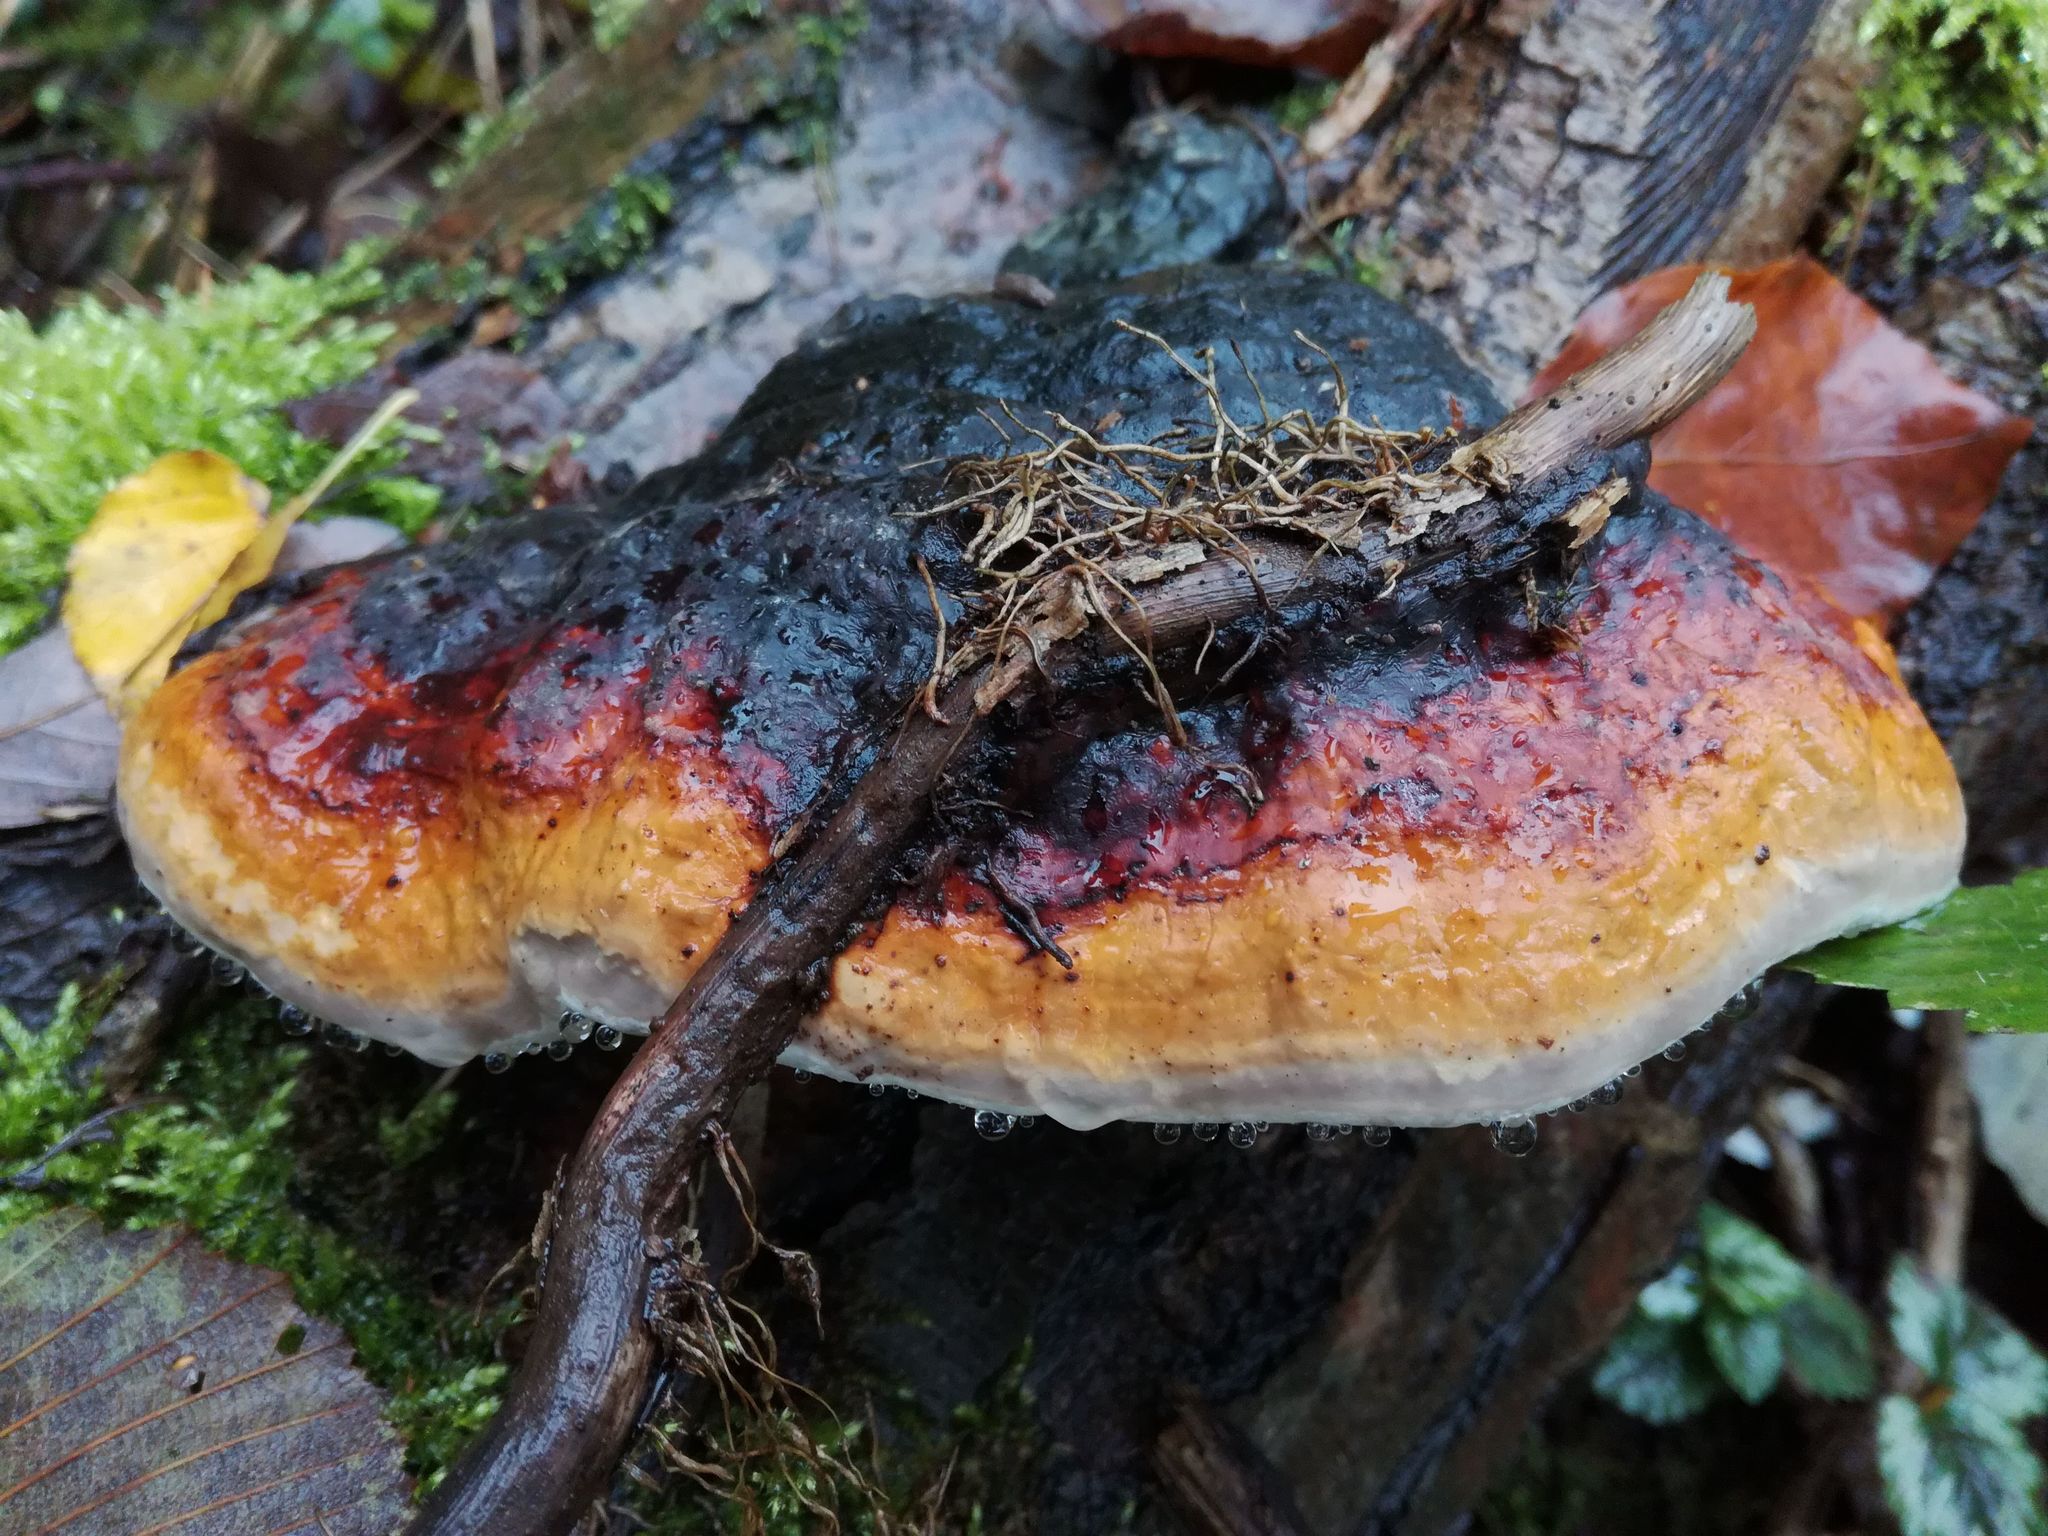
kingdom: Fungi
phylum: Basidiomycota
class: Agaricomycetes
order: Polyporales
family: Fomitopsidaceae
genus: Fomitopsis
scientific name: Fomitopsis pinicola
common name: Red-belted bracket
